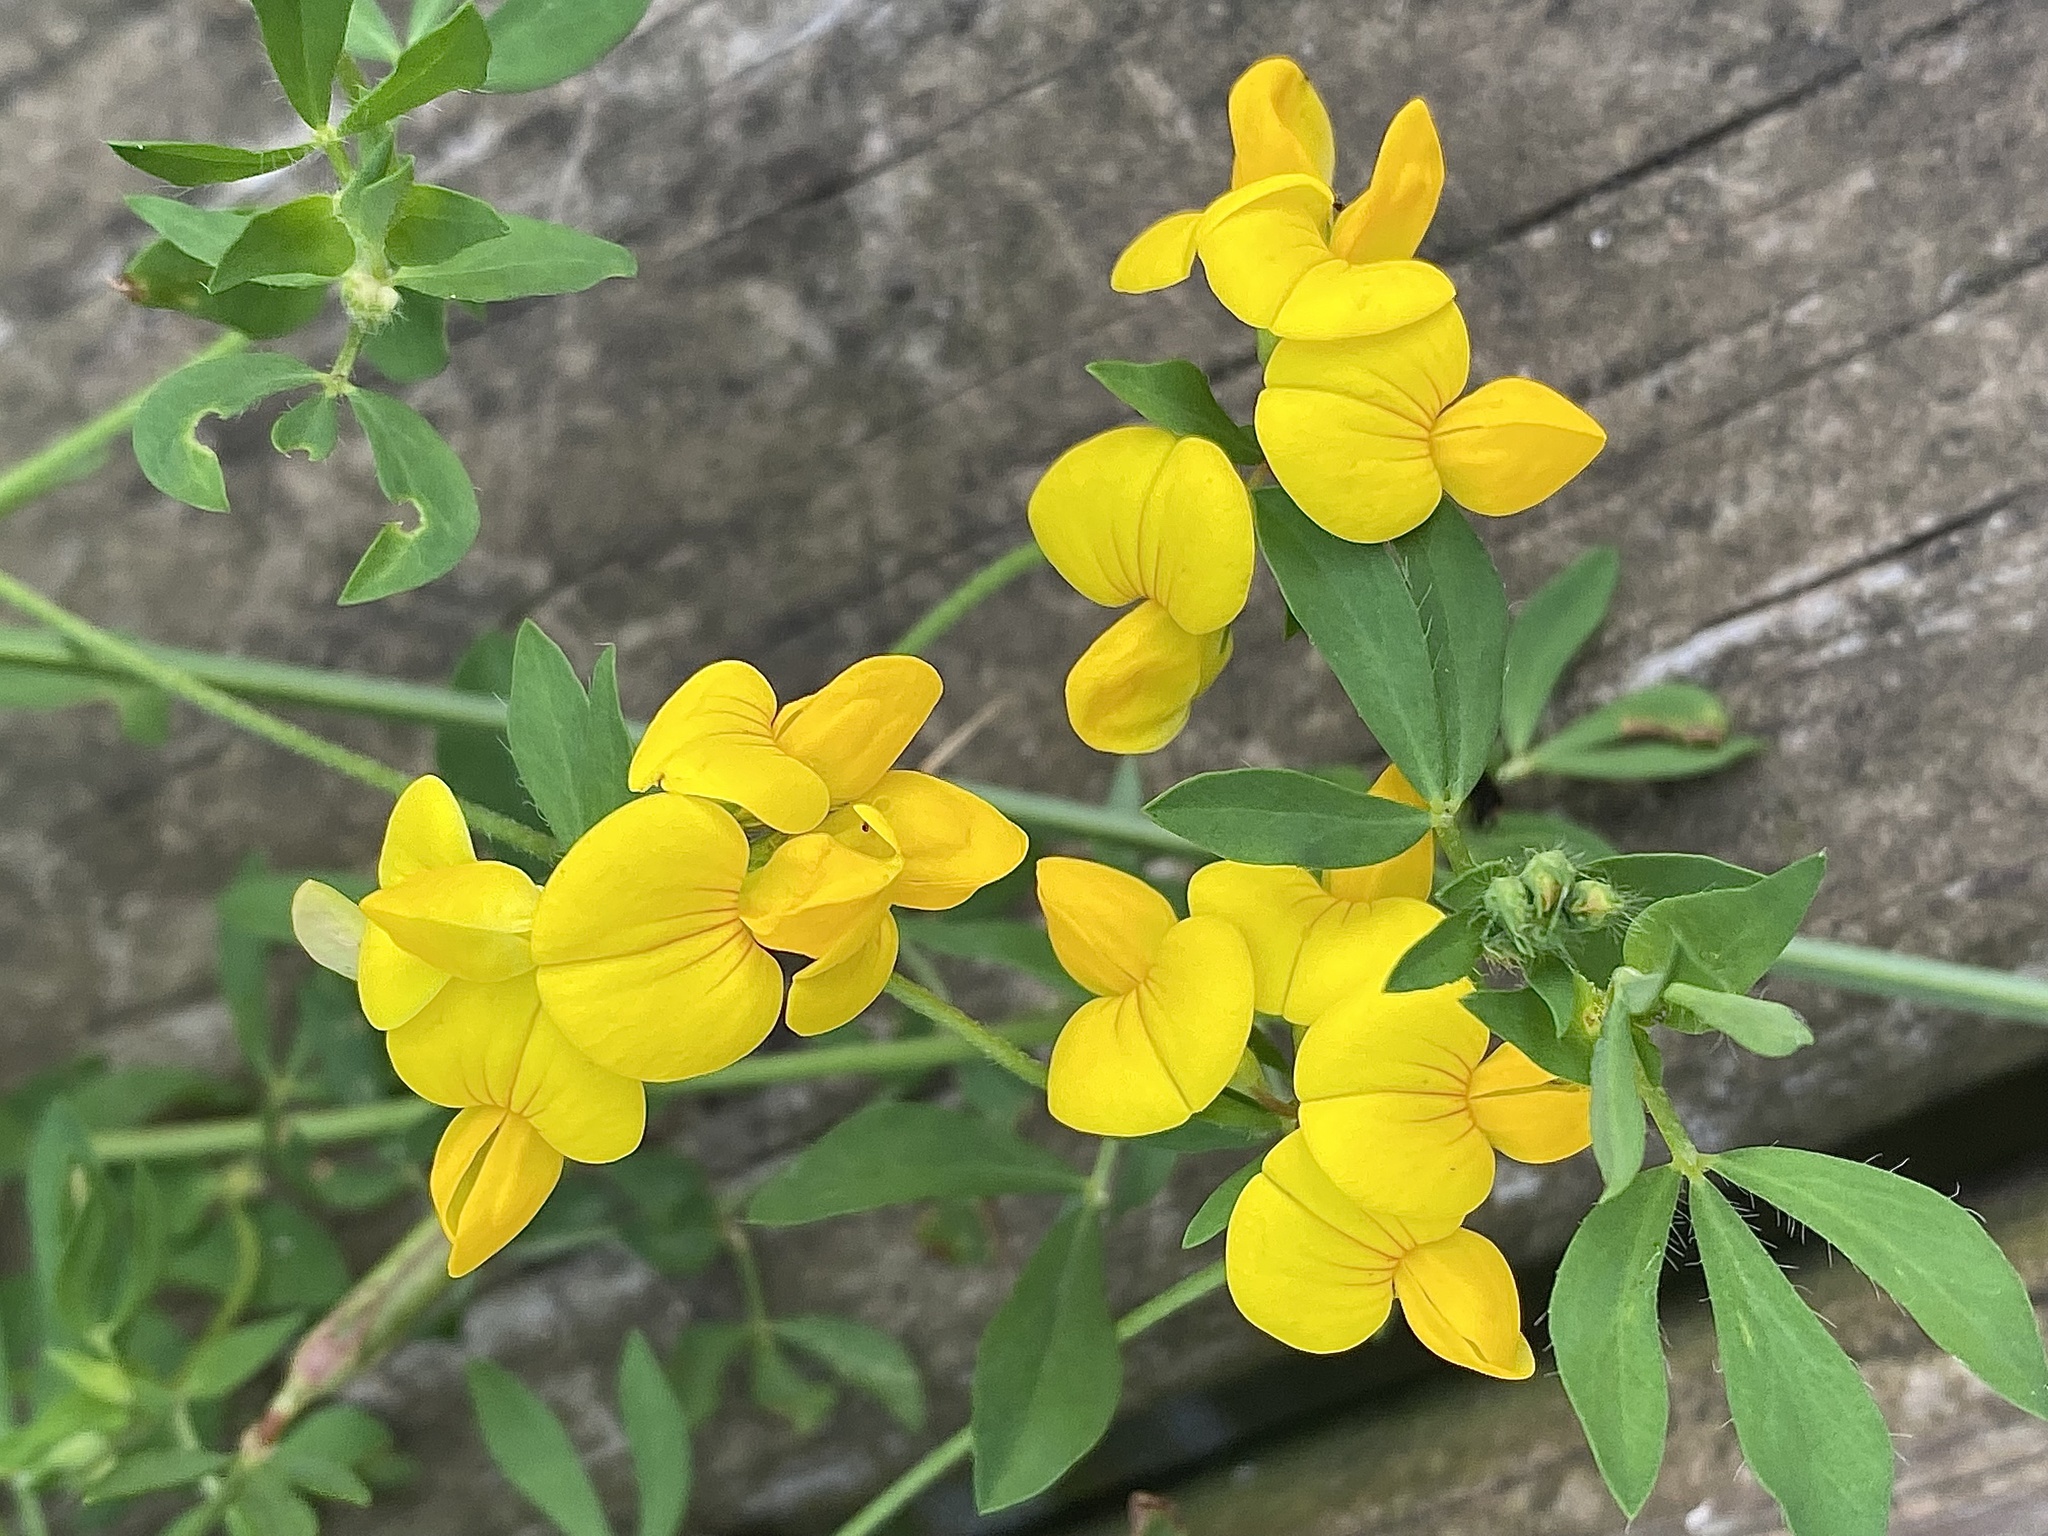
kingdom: Plantae
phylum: Tracheophyta
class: Magnoliopsida
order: Fabales
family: Fabaceae
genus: Lotus
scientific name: Lotus corniculatus
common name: Common bird's-foot-trefoil
